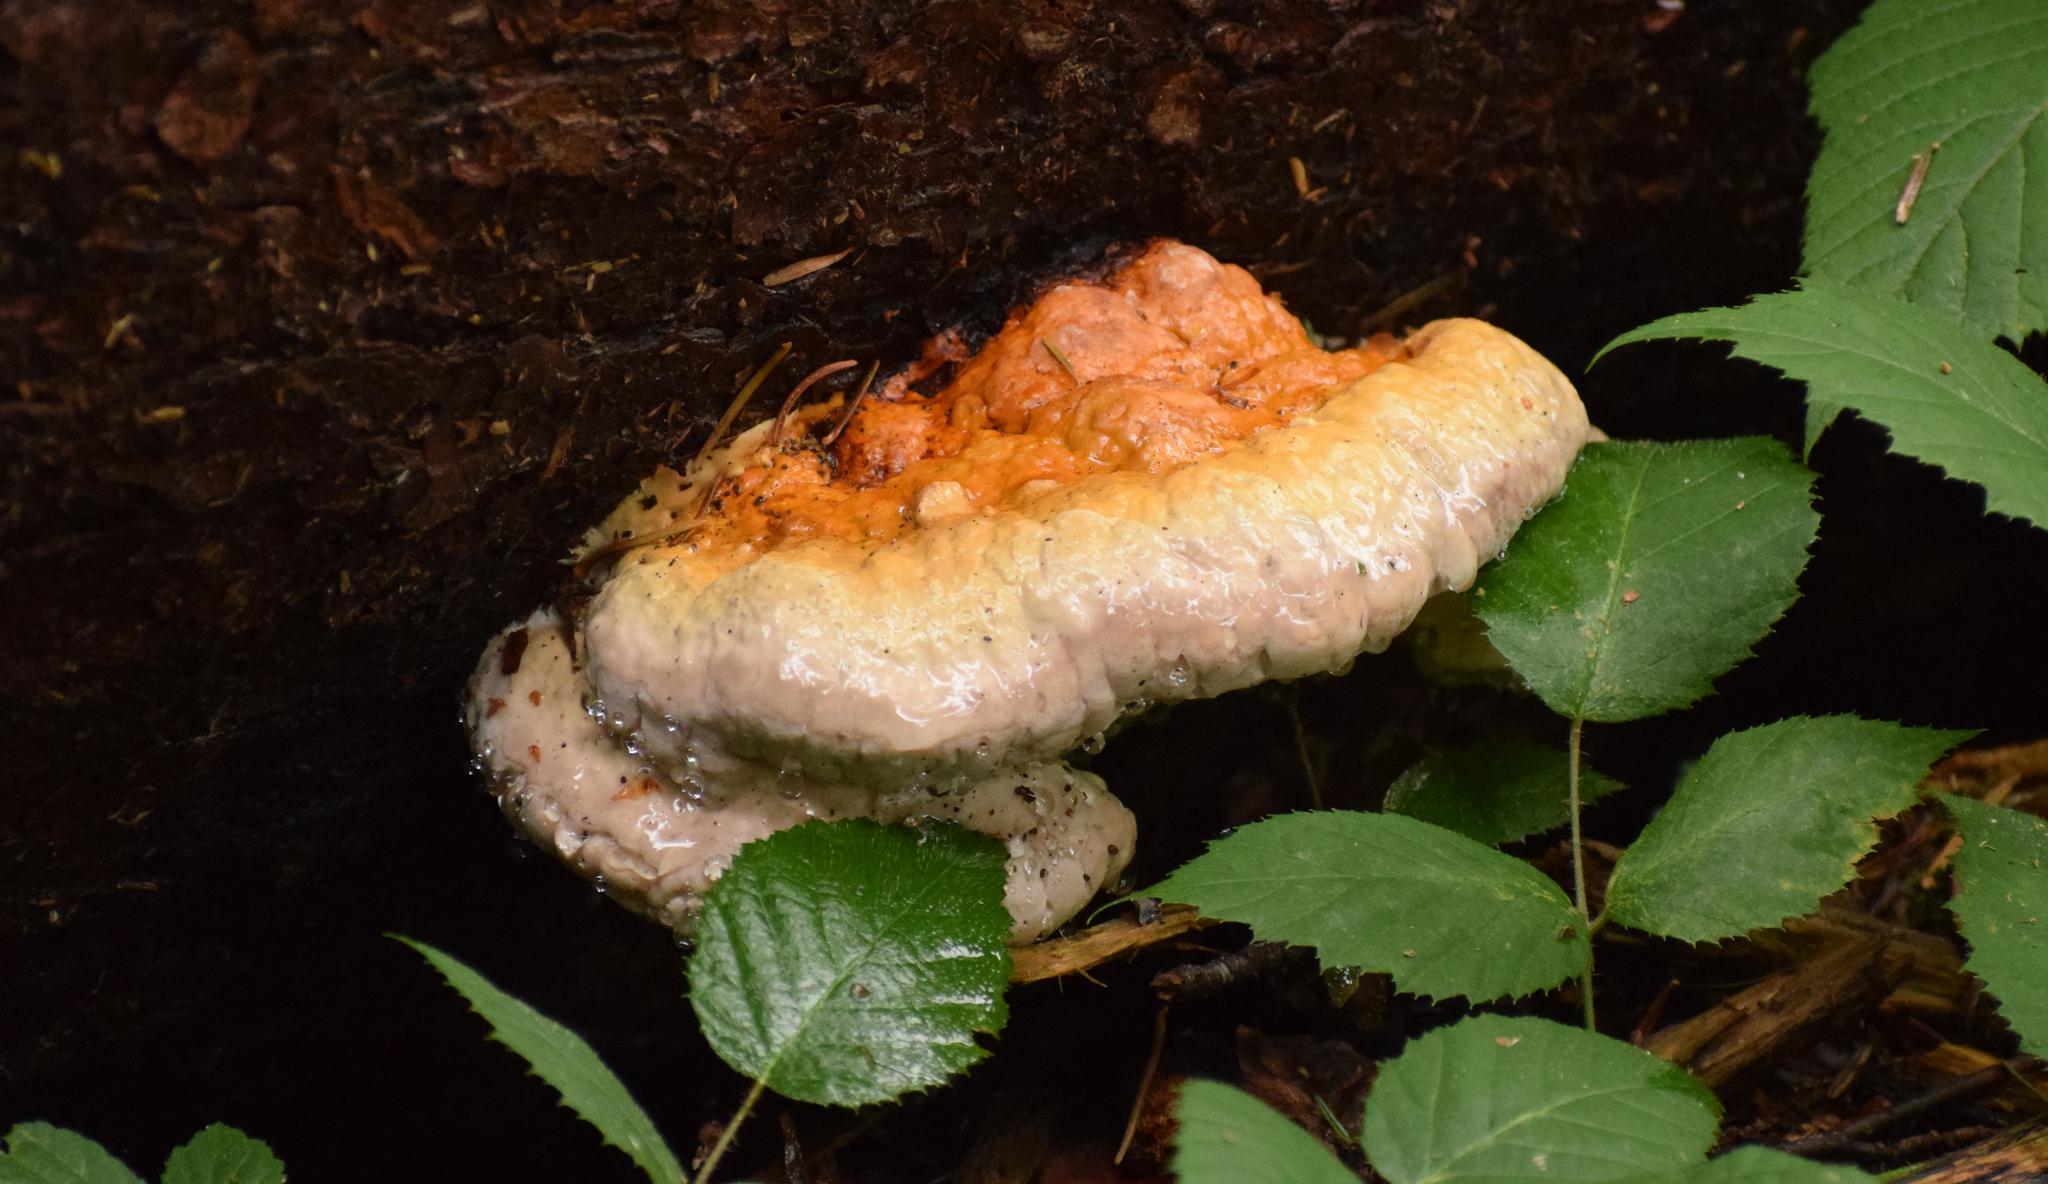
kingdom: Fungi
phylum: Basidiomycota
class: Agaricomycetes
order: Polyporales
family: Fomitopsidaceae
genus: Fomitopsis
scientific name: Fomitopsis pinicola
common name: Red-belted bracket
